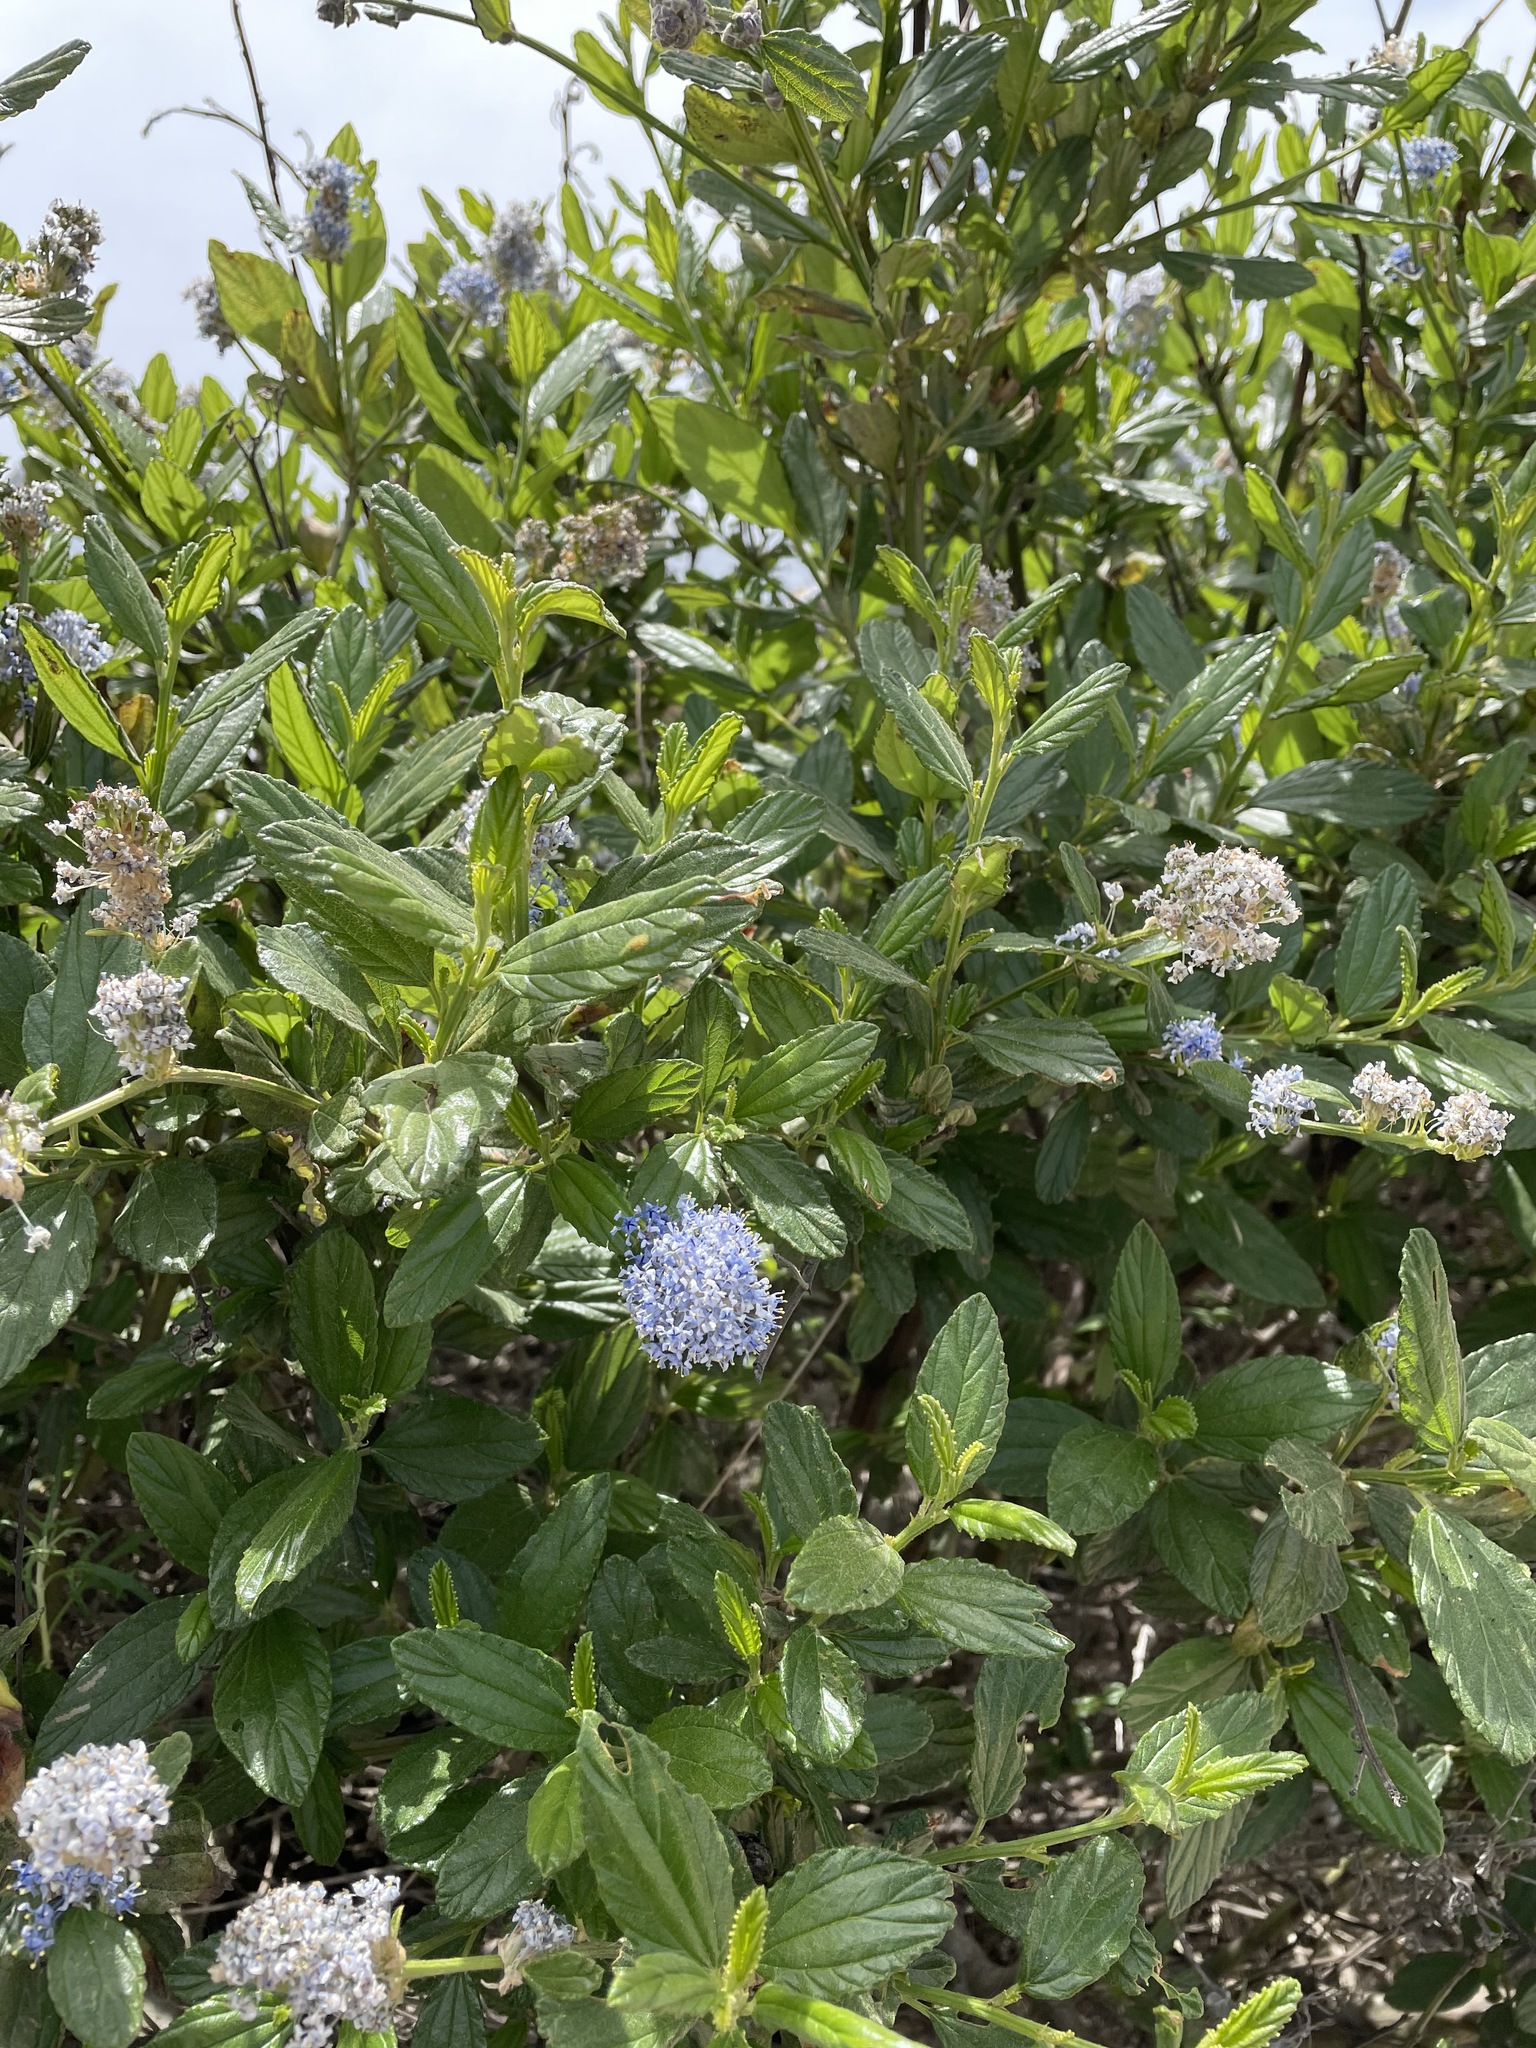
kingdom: Plantae
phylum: Tracheophyta
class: Magnoliopsida
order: Rosales
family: Rhamnaceae
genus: Ceanothus
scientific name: Ceanothus griseus
